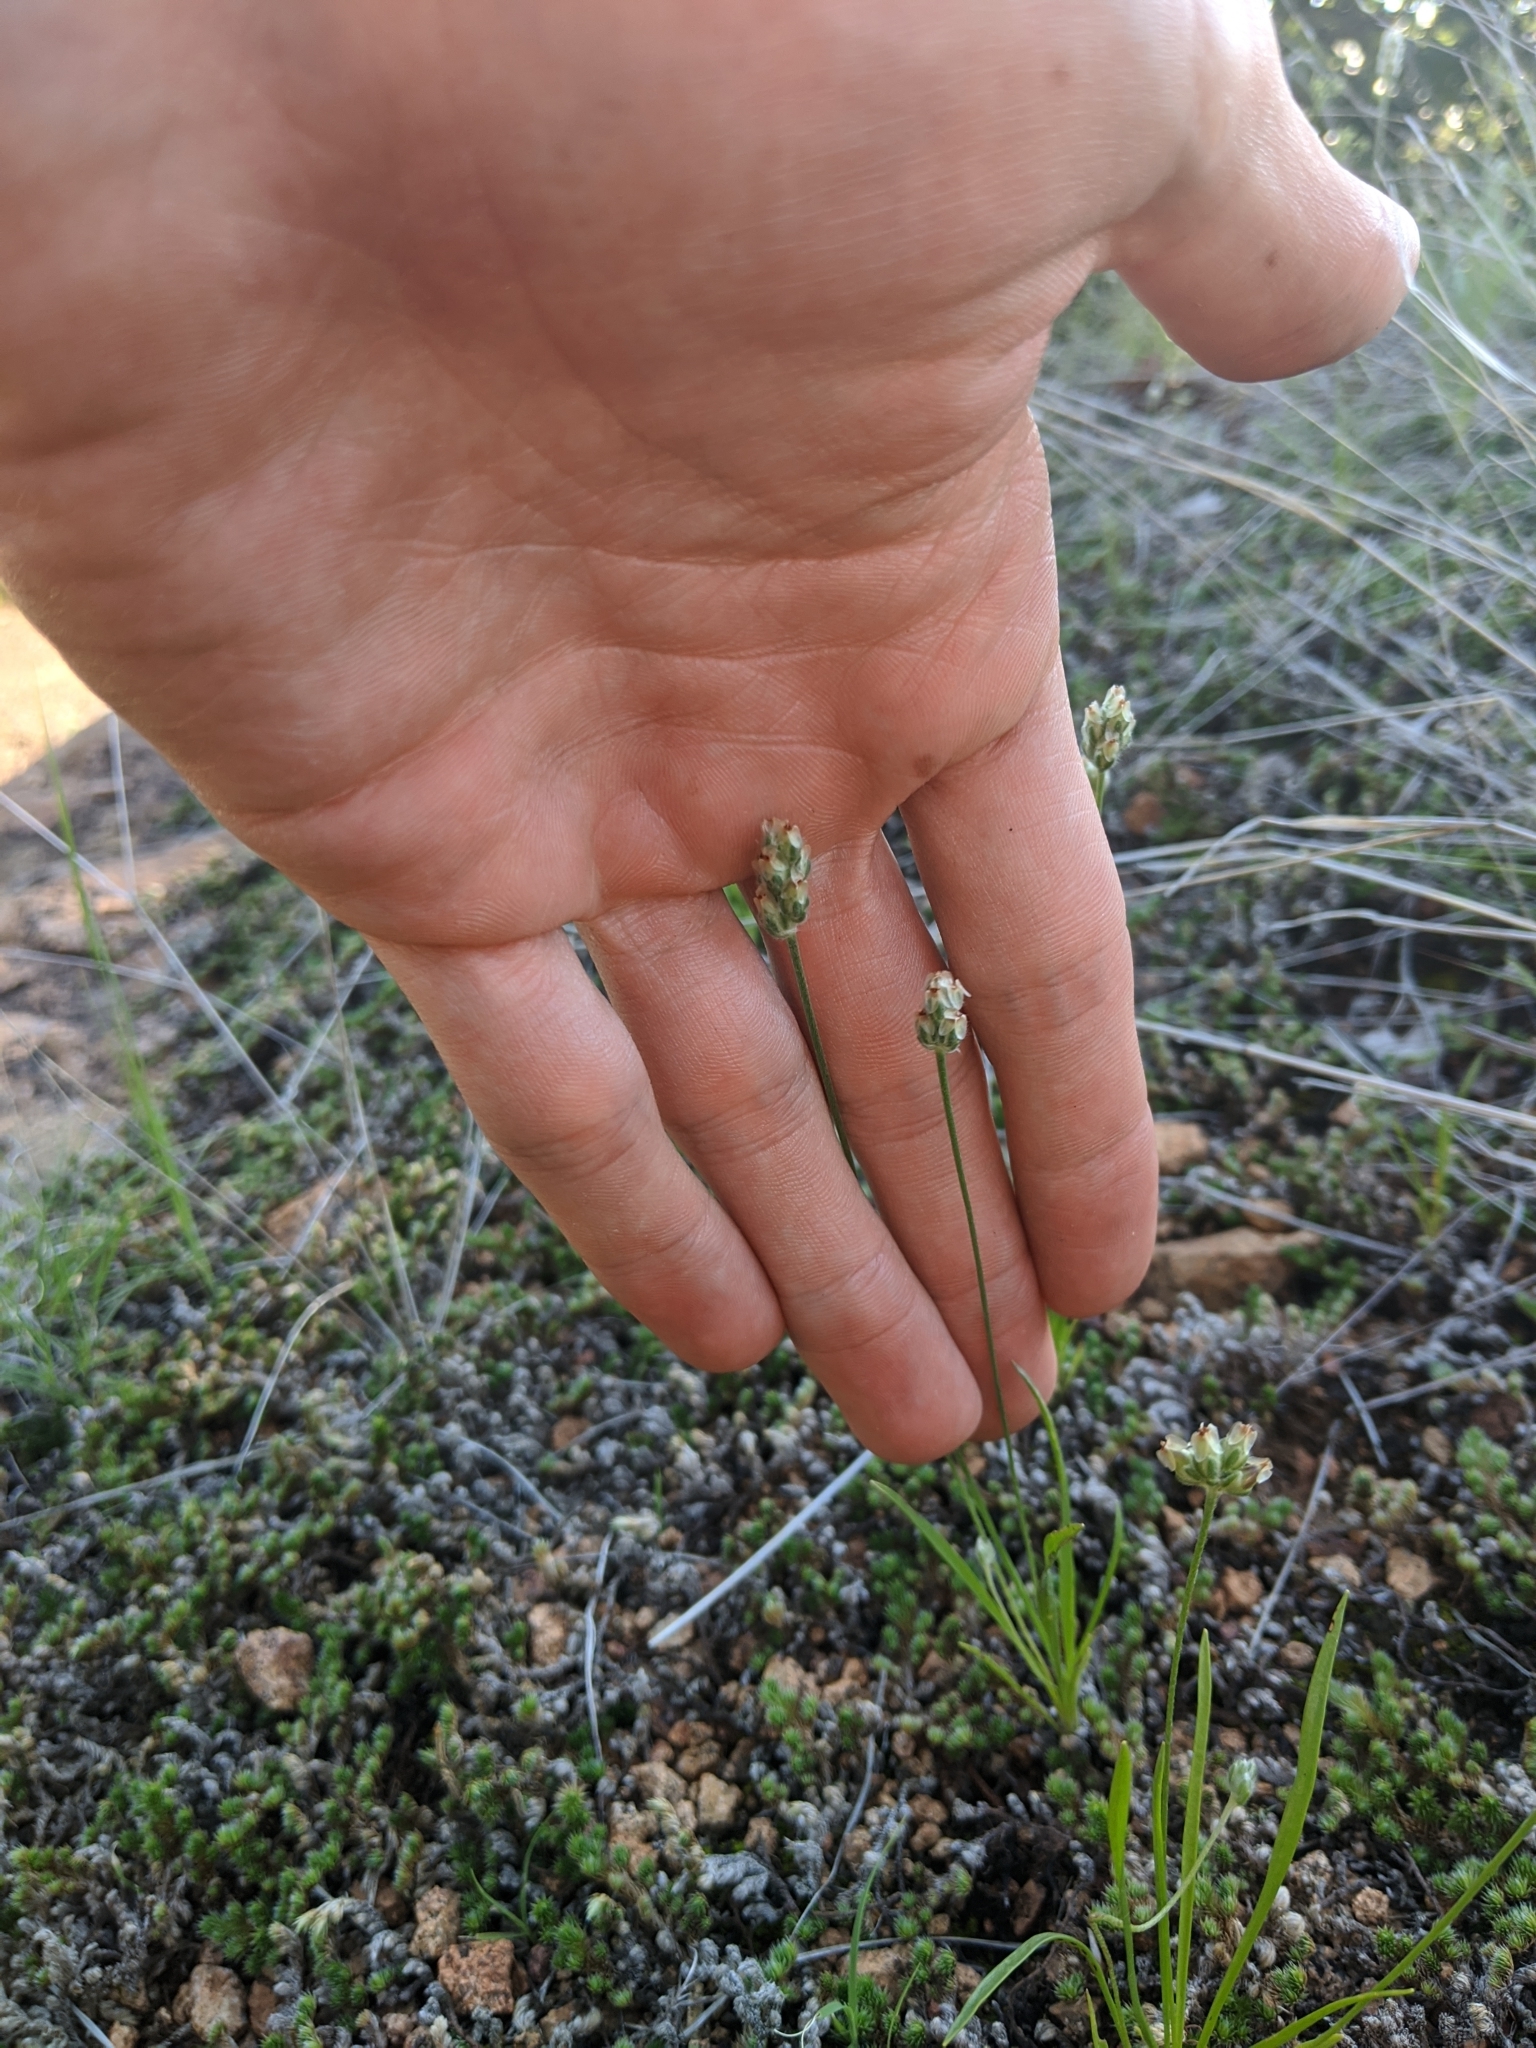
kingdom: Plantae
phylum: Tracheophyta
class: Magnoliopsida
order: Lamiales
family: Plantaginaceae
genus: Plantago
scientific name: Plantago wrightiana
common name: Wright's plantain
